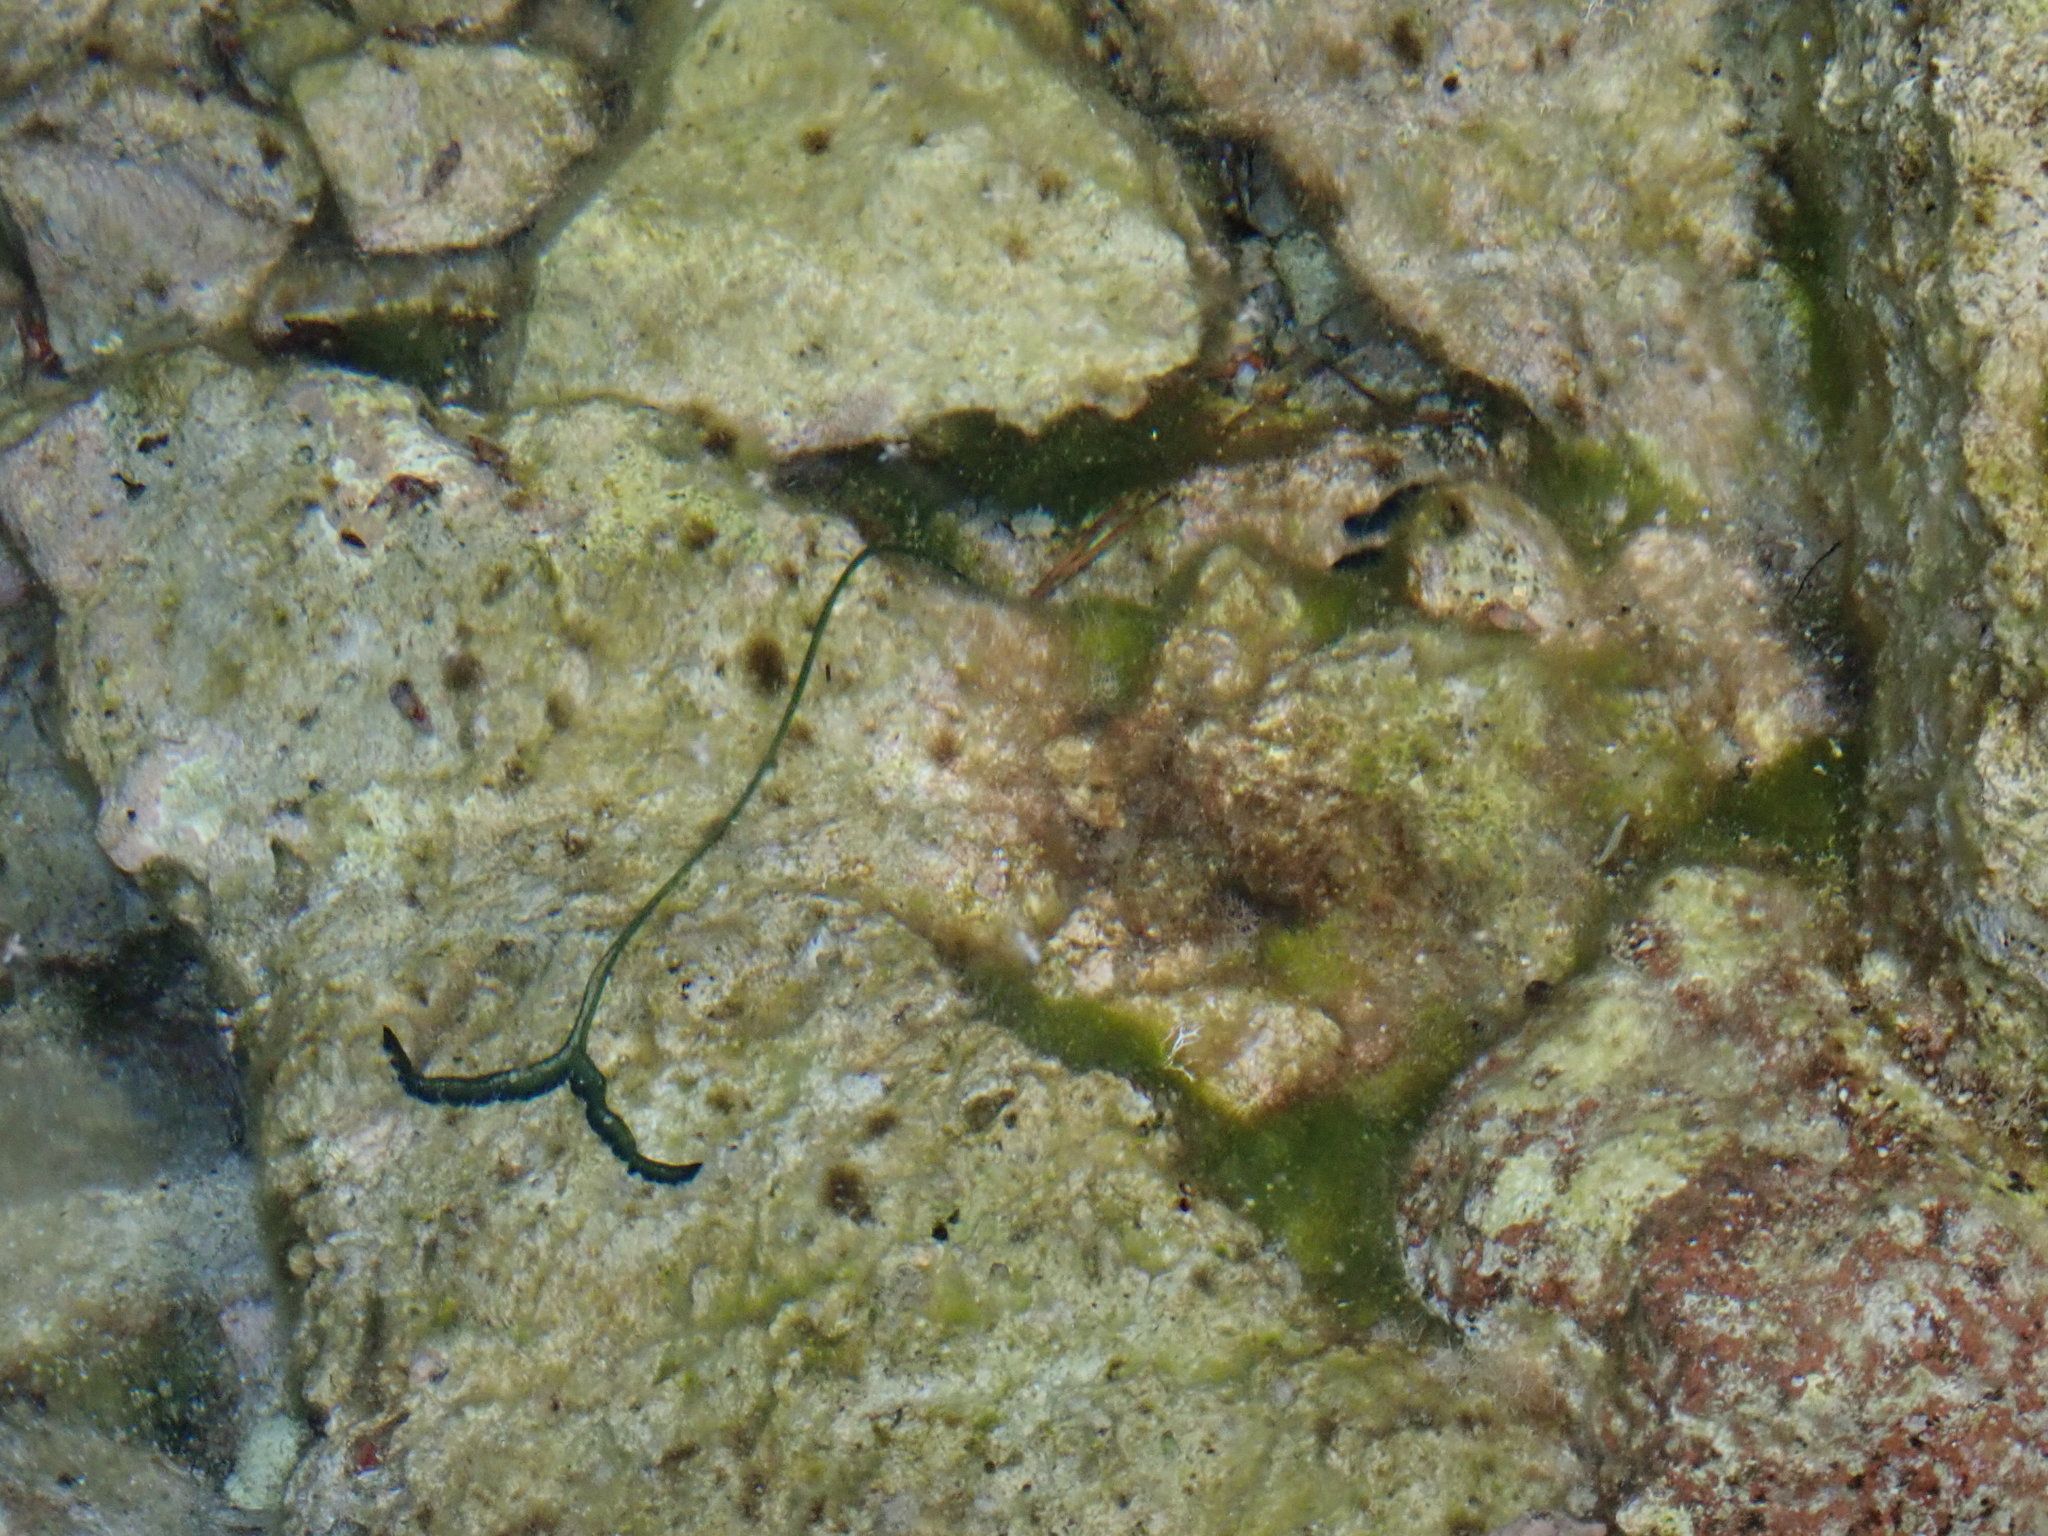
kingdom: Animalia
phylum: Annelida
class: Polychaeta
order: Echiuroidea
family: Bonelliidae
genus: Bonellia
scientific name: Bonellia viridis
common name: Green spoon worm
